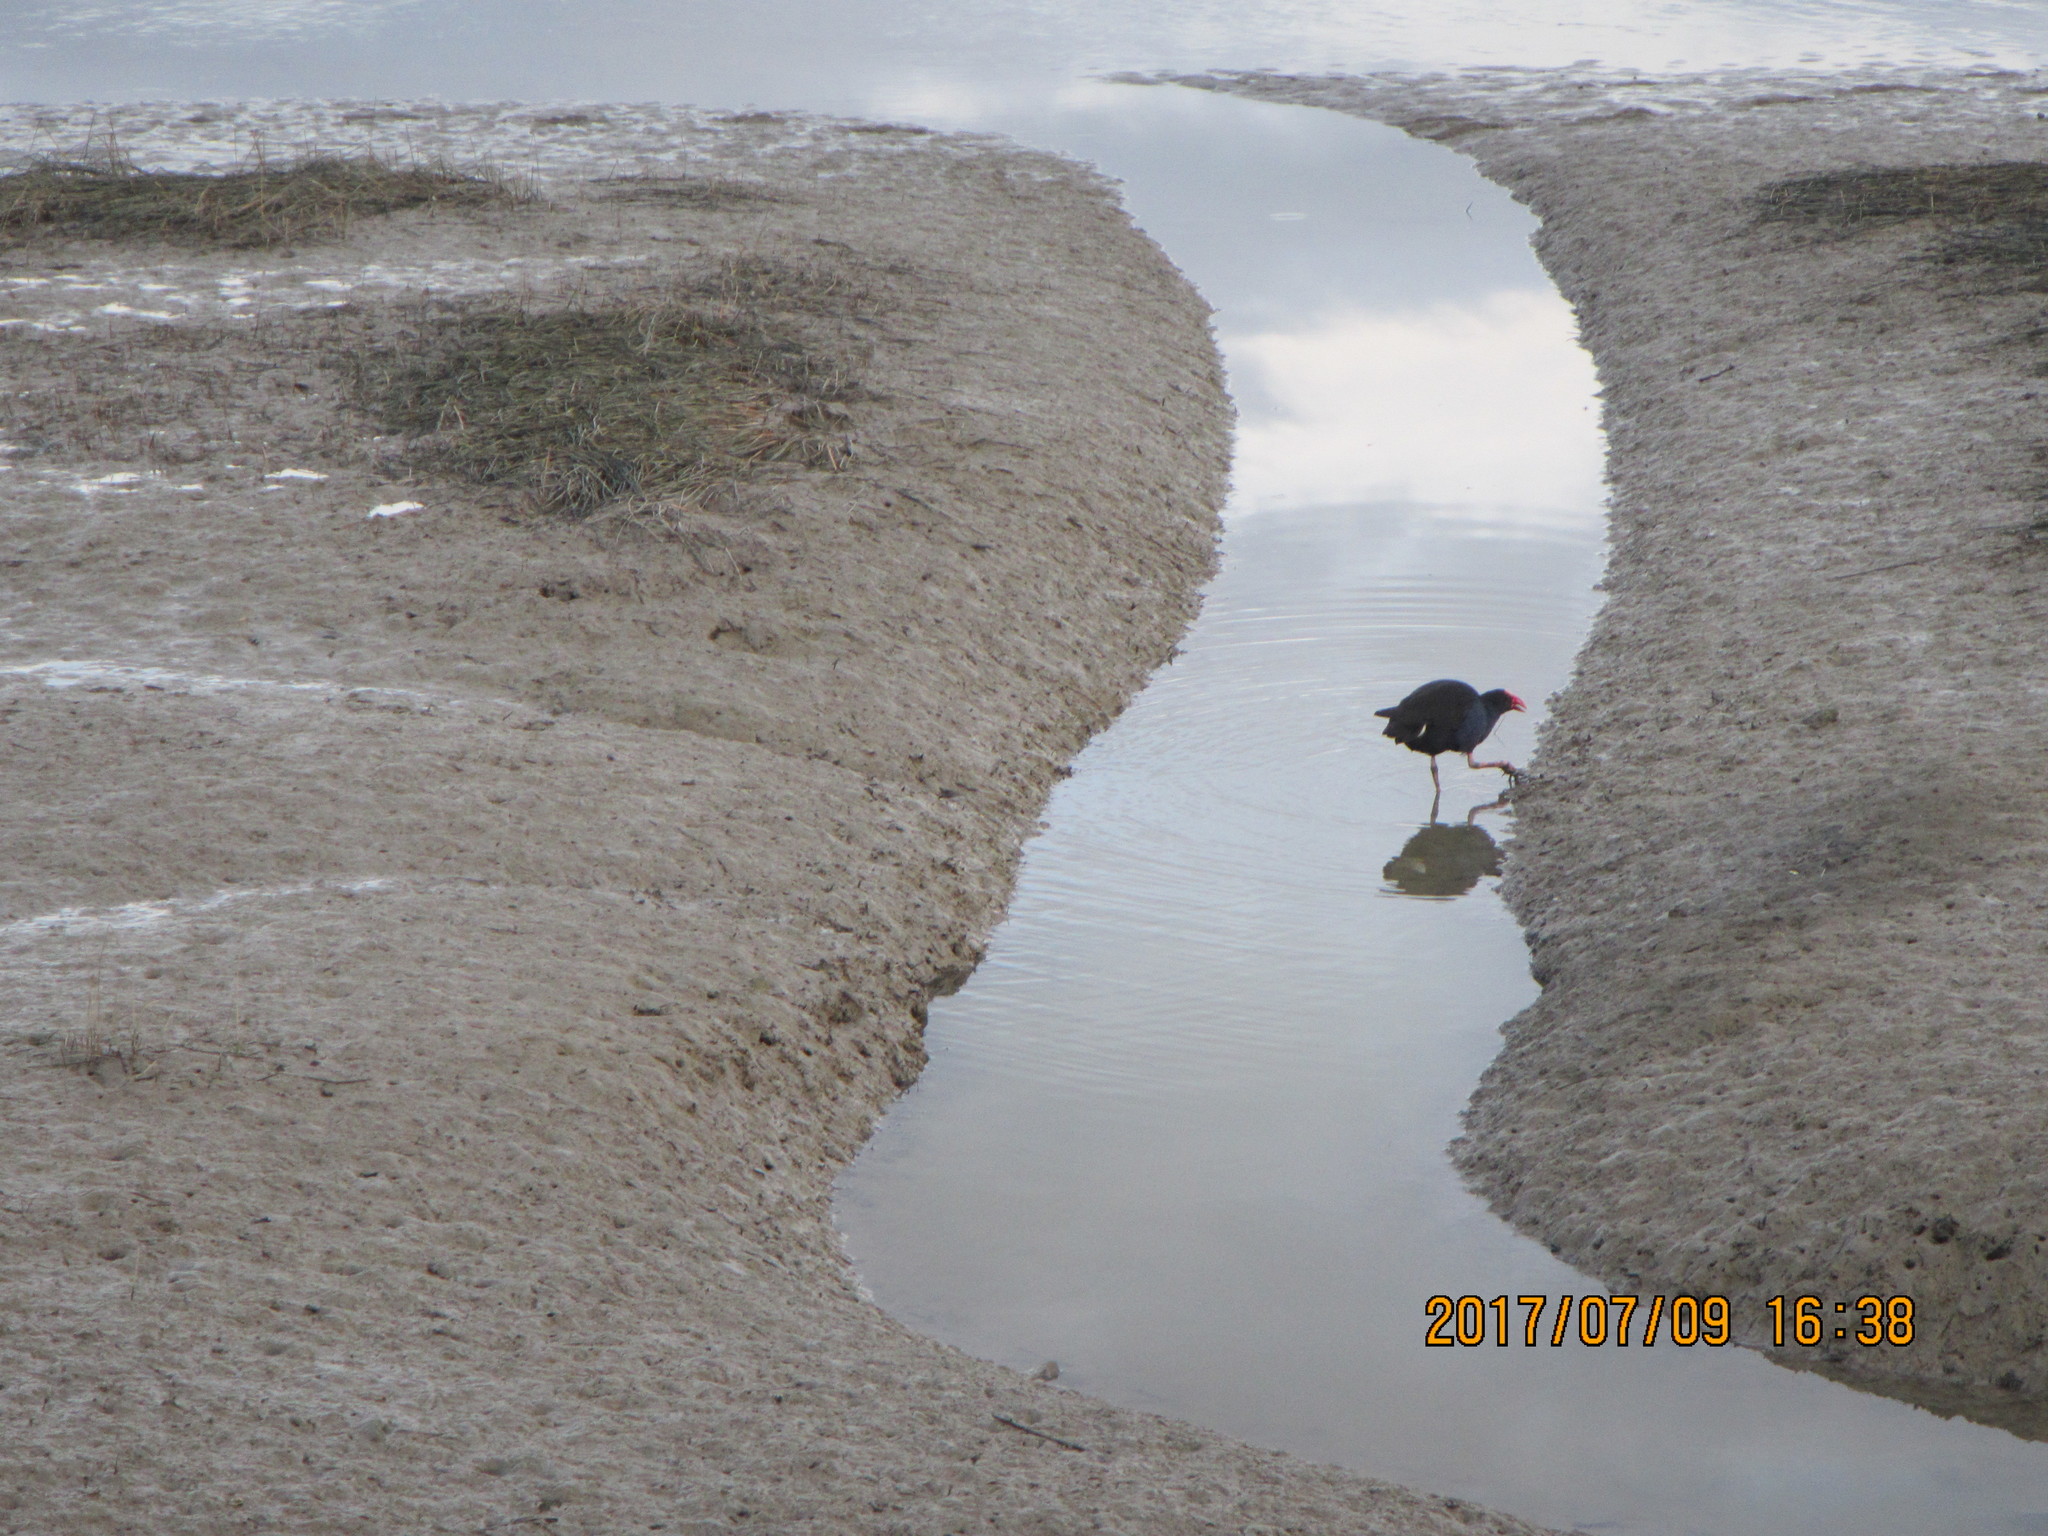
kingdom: Animalia
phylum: Chordata
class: Aves
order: Gruiformes
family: Rallidae
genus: Porphyrio
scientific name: Porphyrio melanotus
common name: Australasian swamphen
